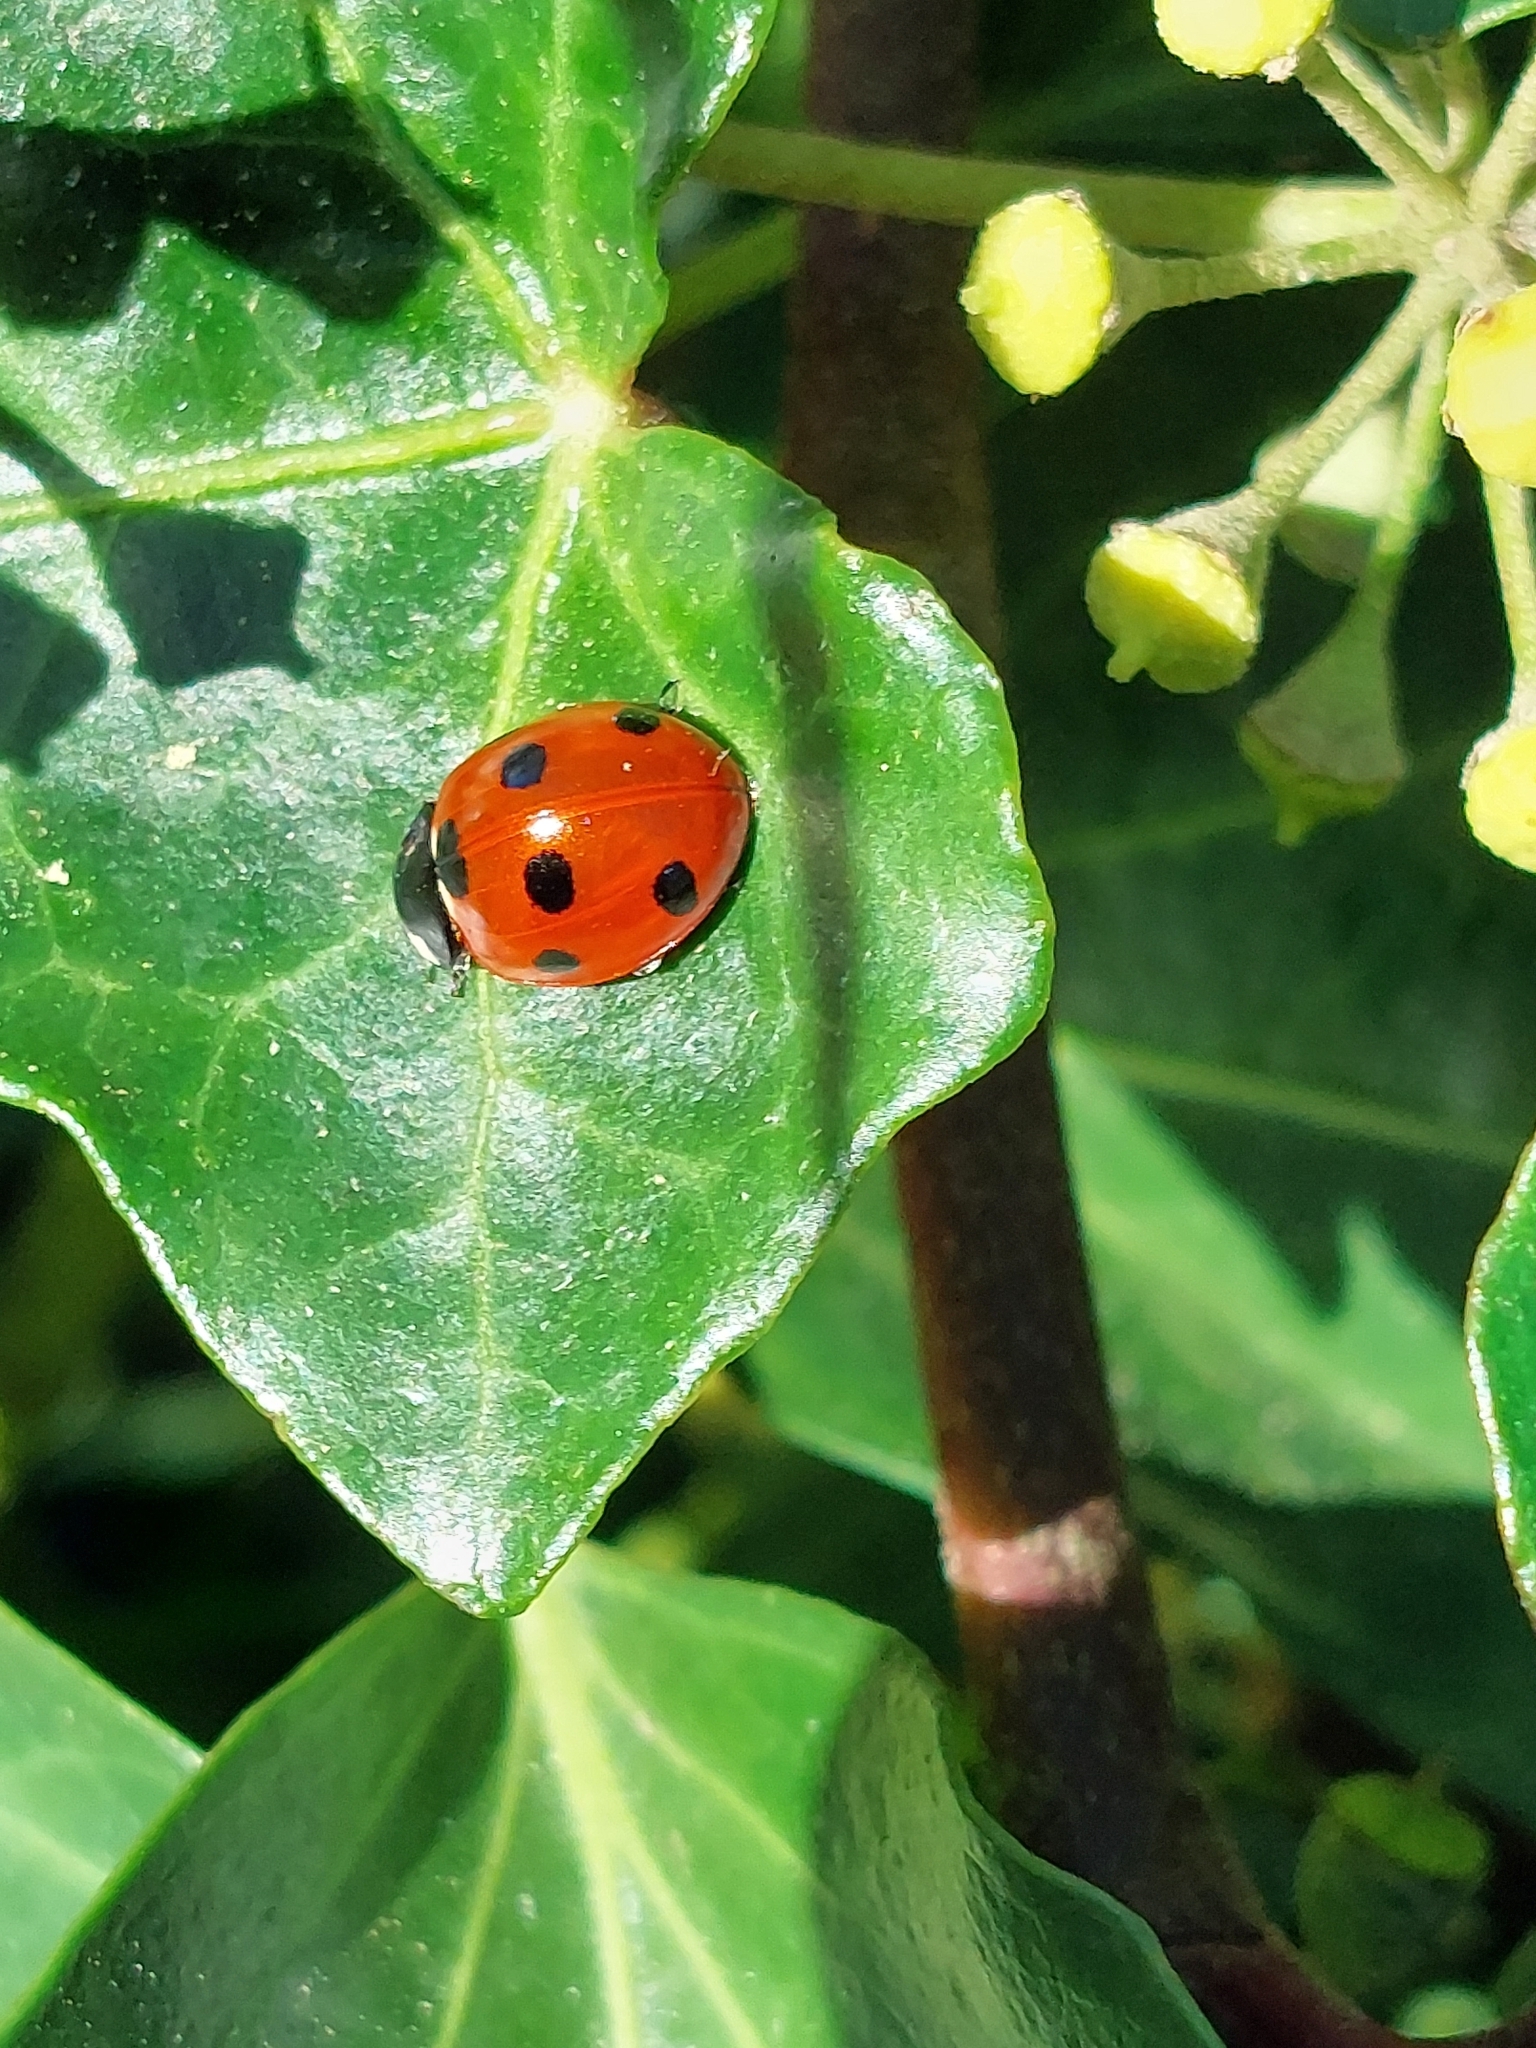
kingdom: Animalia
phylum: Arthropoda
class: Insecta
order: Coleoptera
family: Coccinellidae
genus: Coccinella
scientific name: Coccinella septempunctata
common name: Sevenspotted lady beetle
